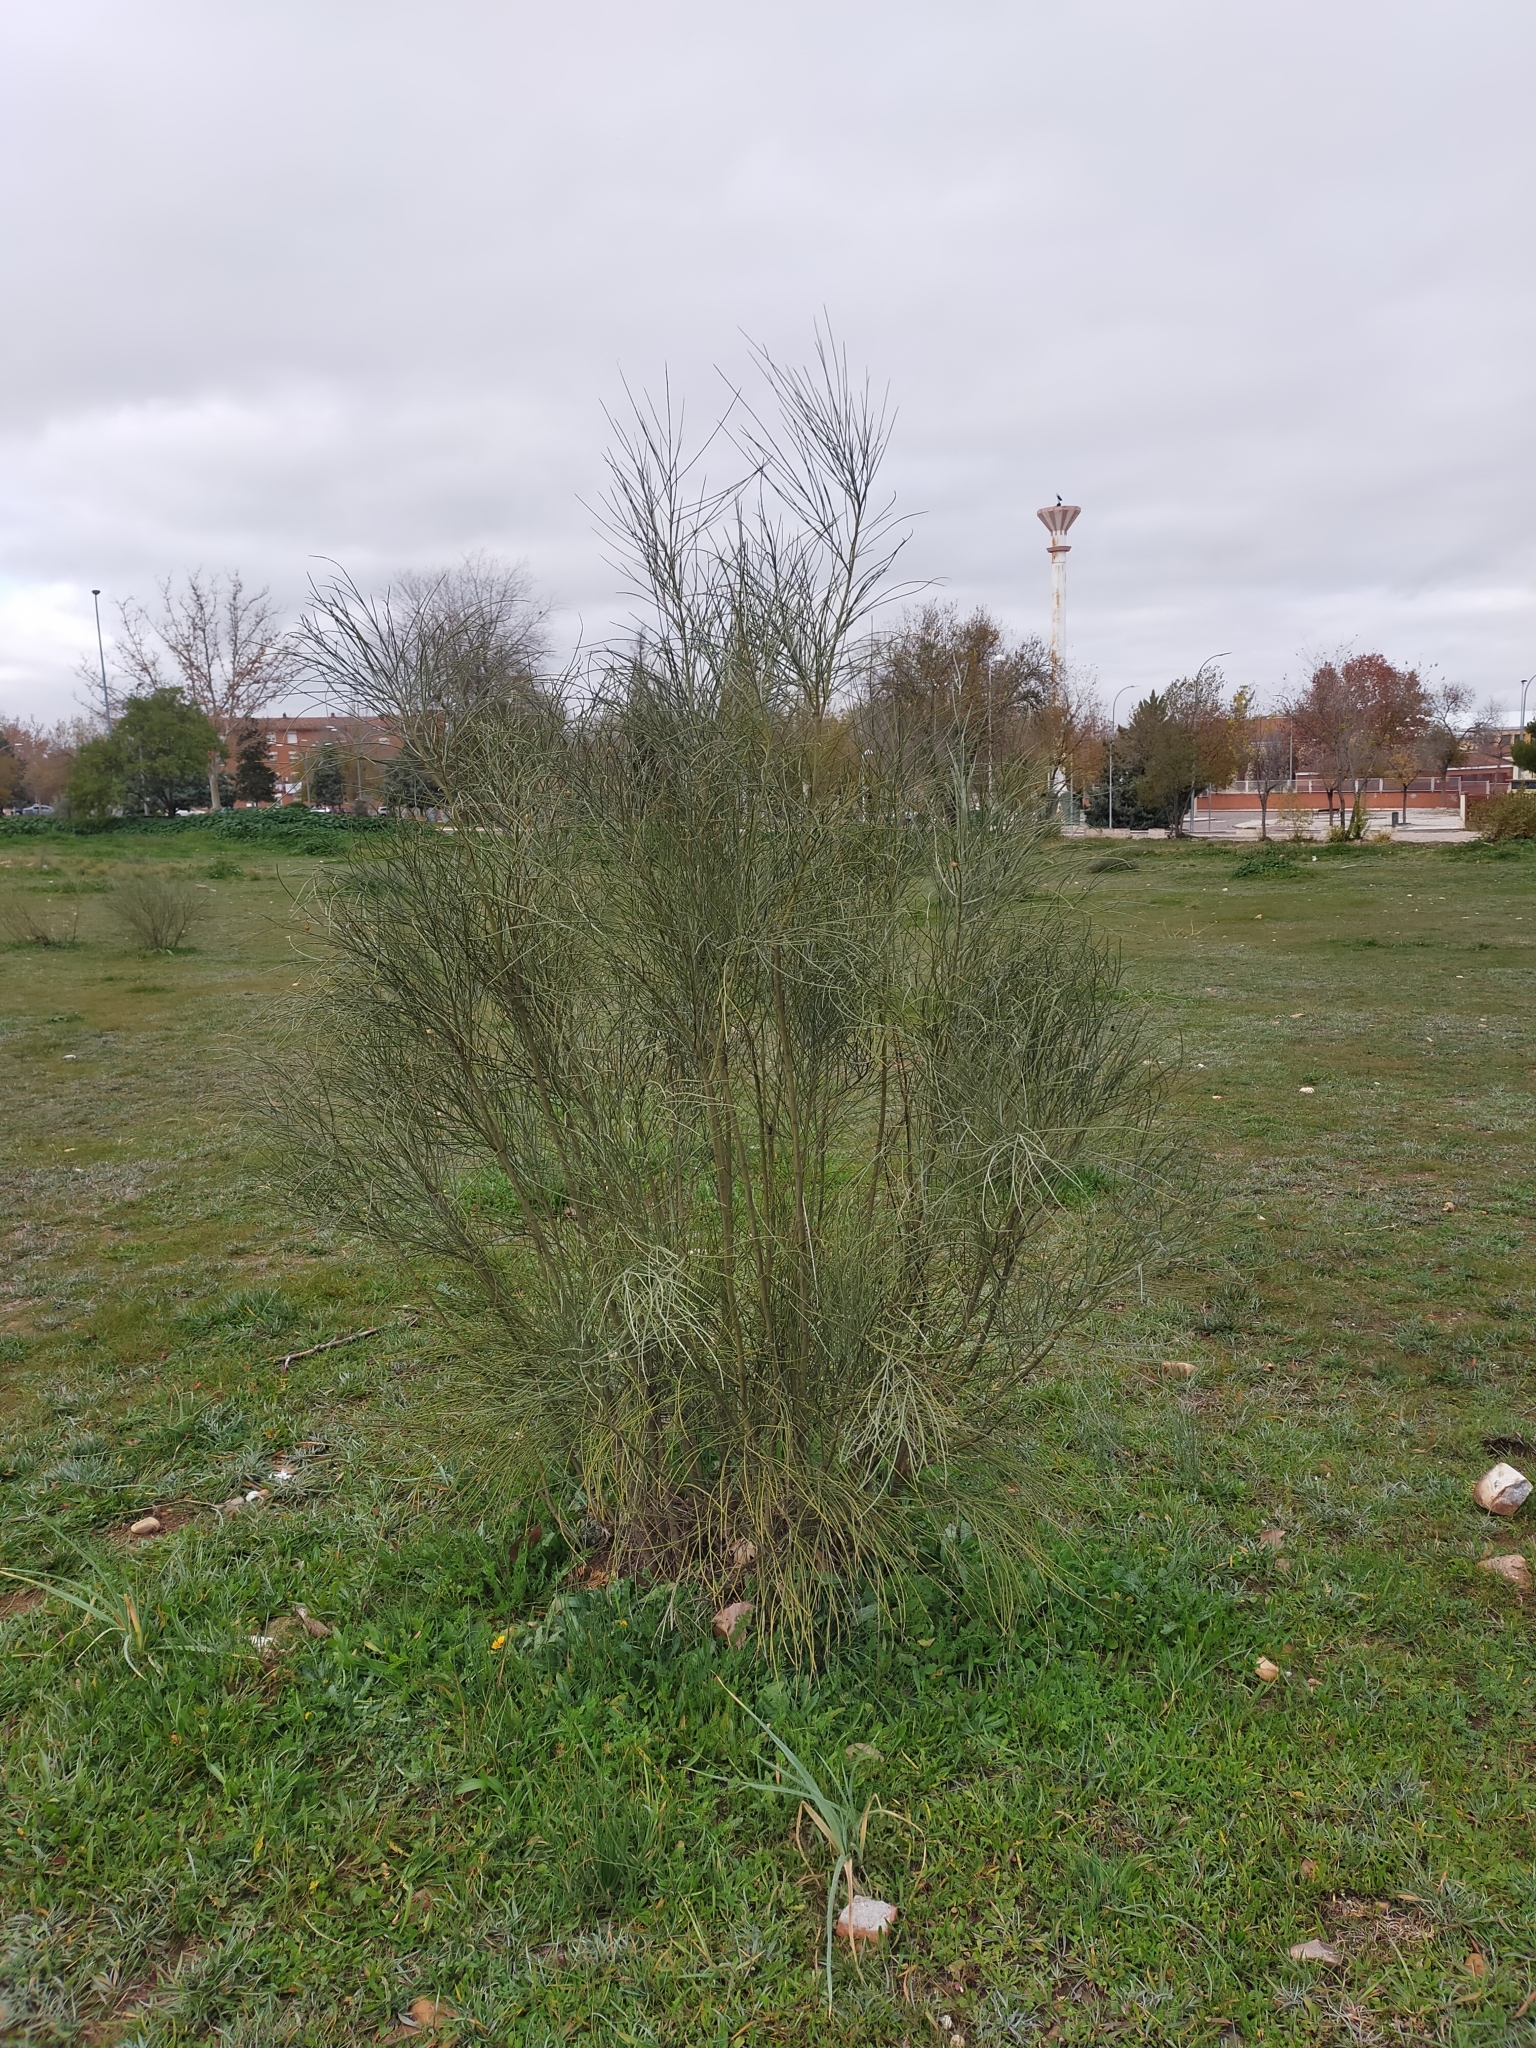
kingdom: Plantae
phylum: Tracheophyta
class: Magnoliopsida
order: Fabales
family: Fabaceae
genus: Retama
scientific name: Retama sphaerocarpa
